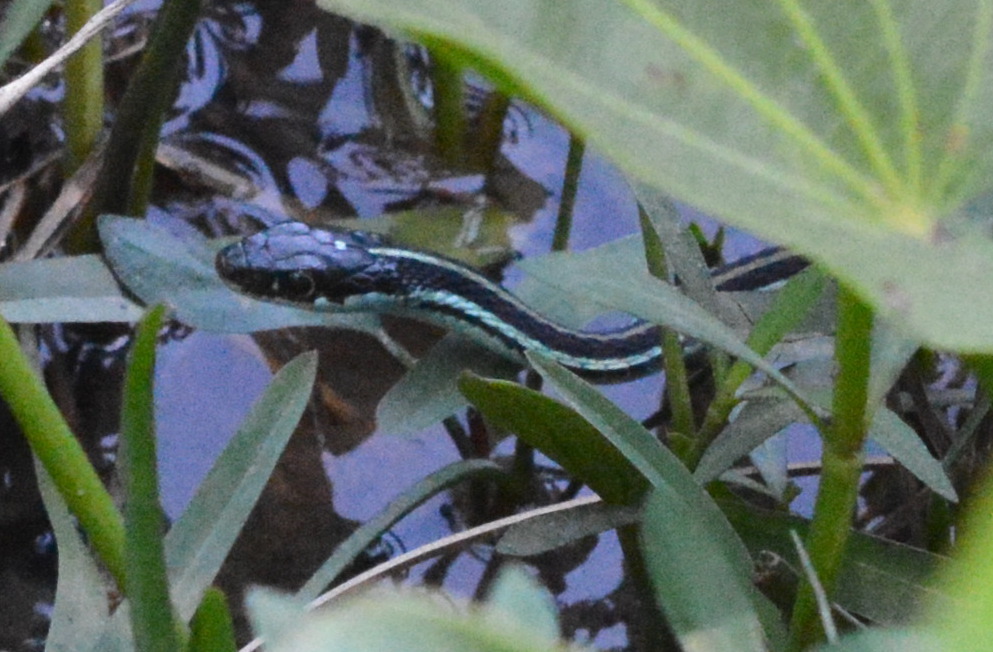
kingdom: Animalia
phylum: Chordata
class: Squamata
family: Colubridae
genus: Thamnophis
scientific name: Thamnophis proximus
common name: Western ribbon snake
